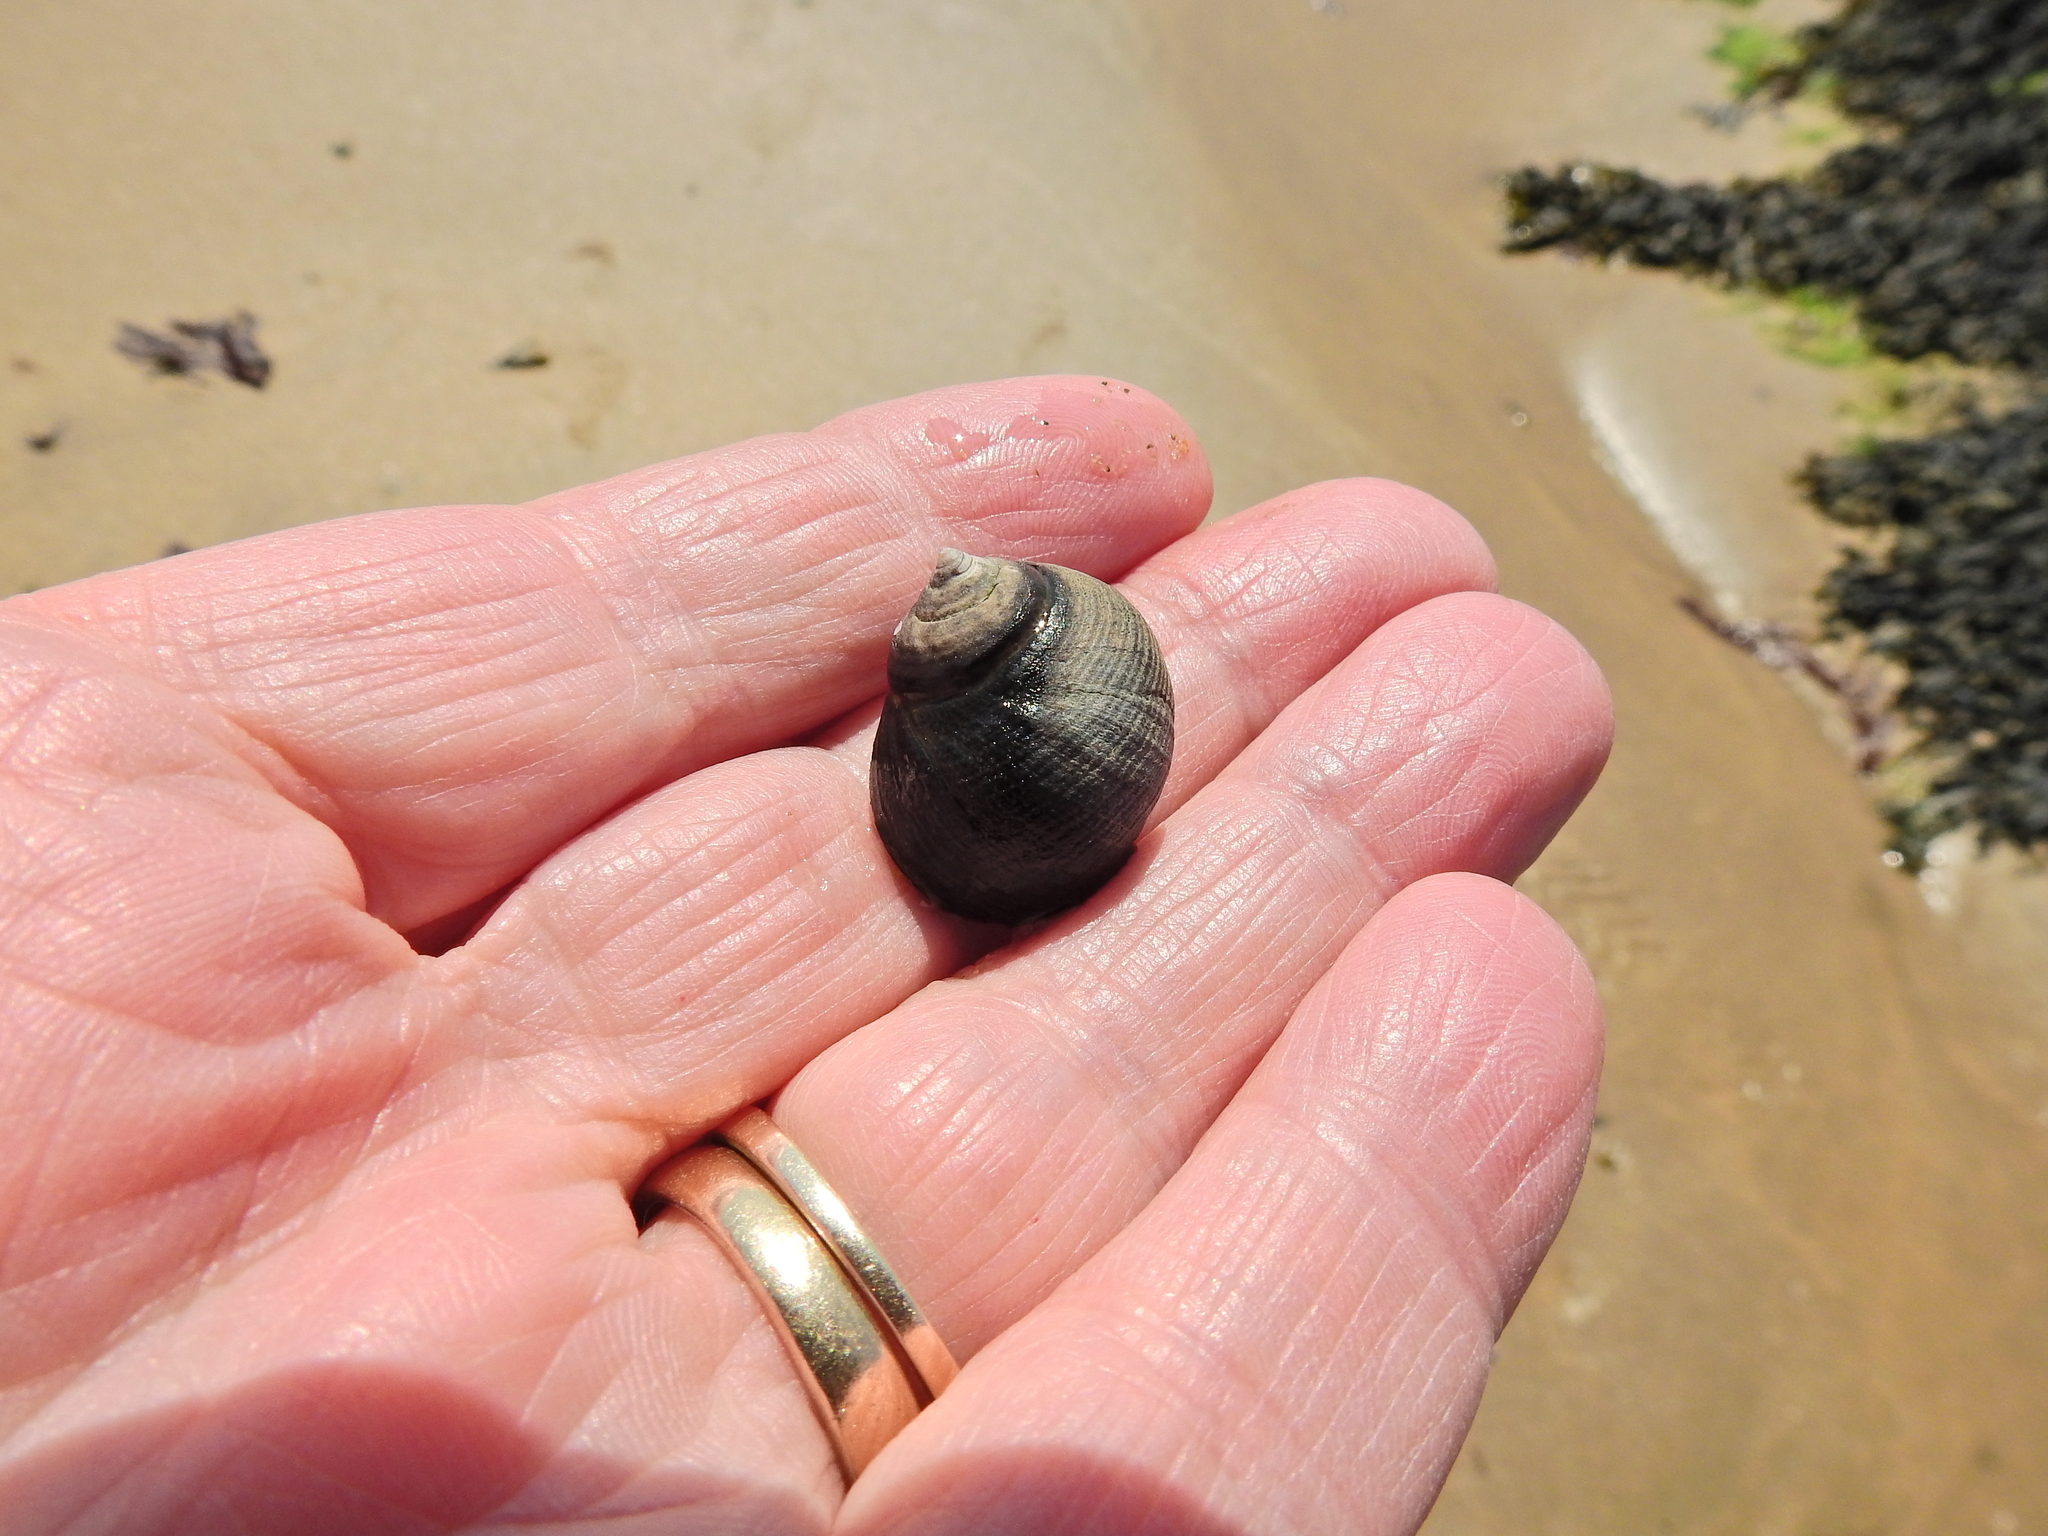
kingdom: Animalia
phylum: Mollusca
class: Gastropoda
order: Littorinimorpha
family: Littorinidae
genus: Littorina
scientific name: Littorina littorea
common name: Common periwinkle
